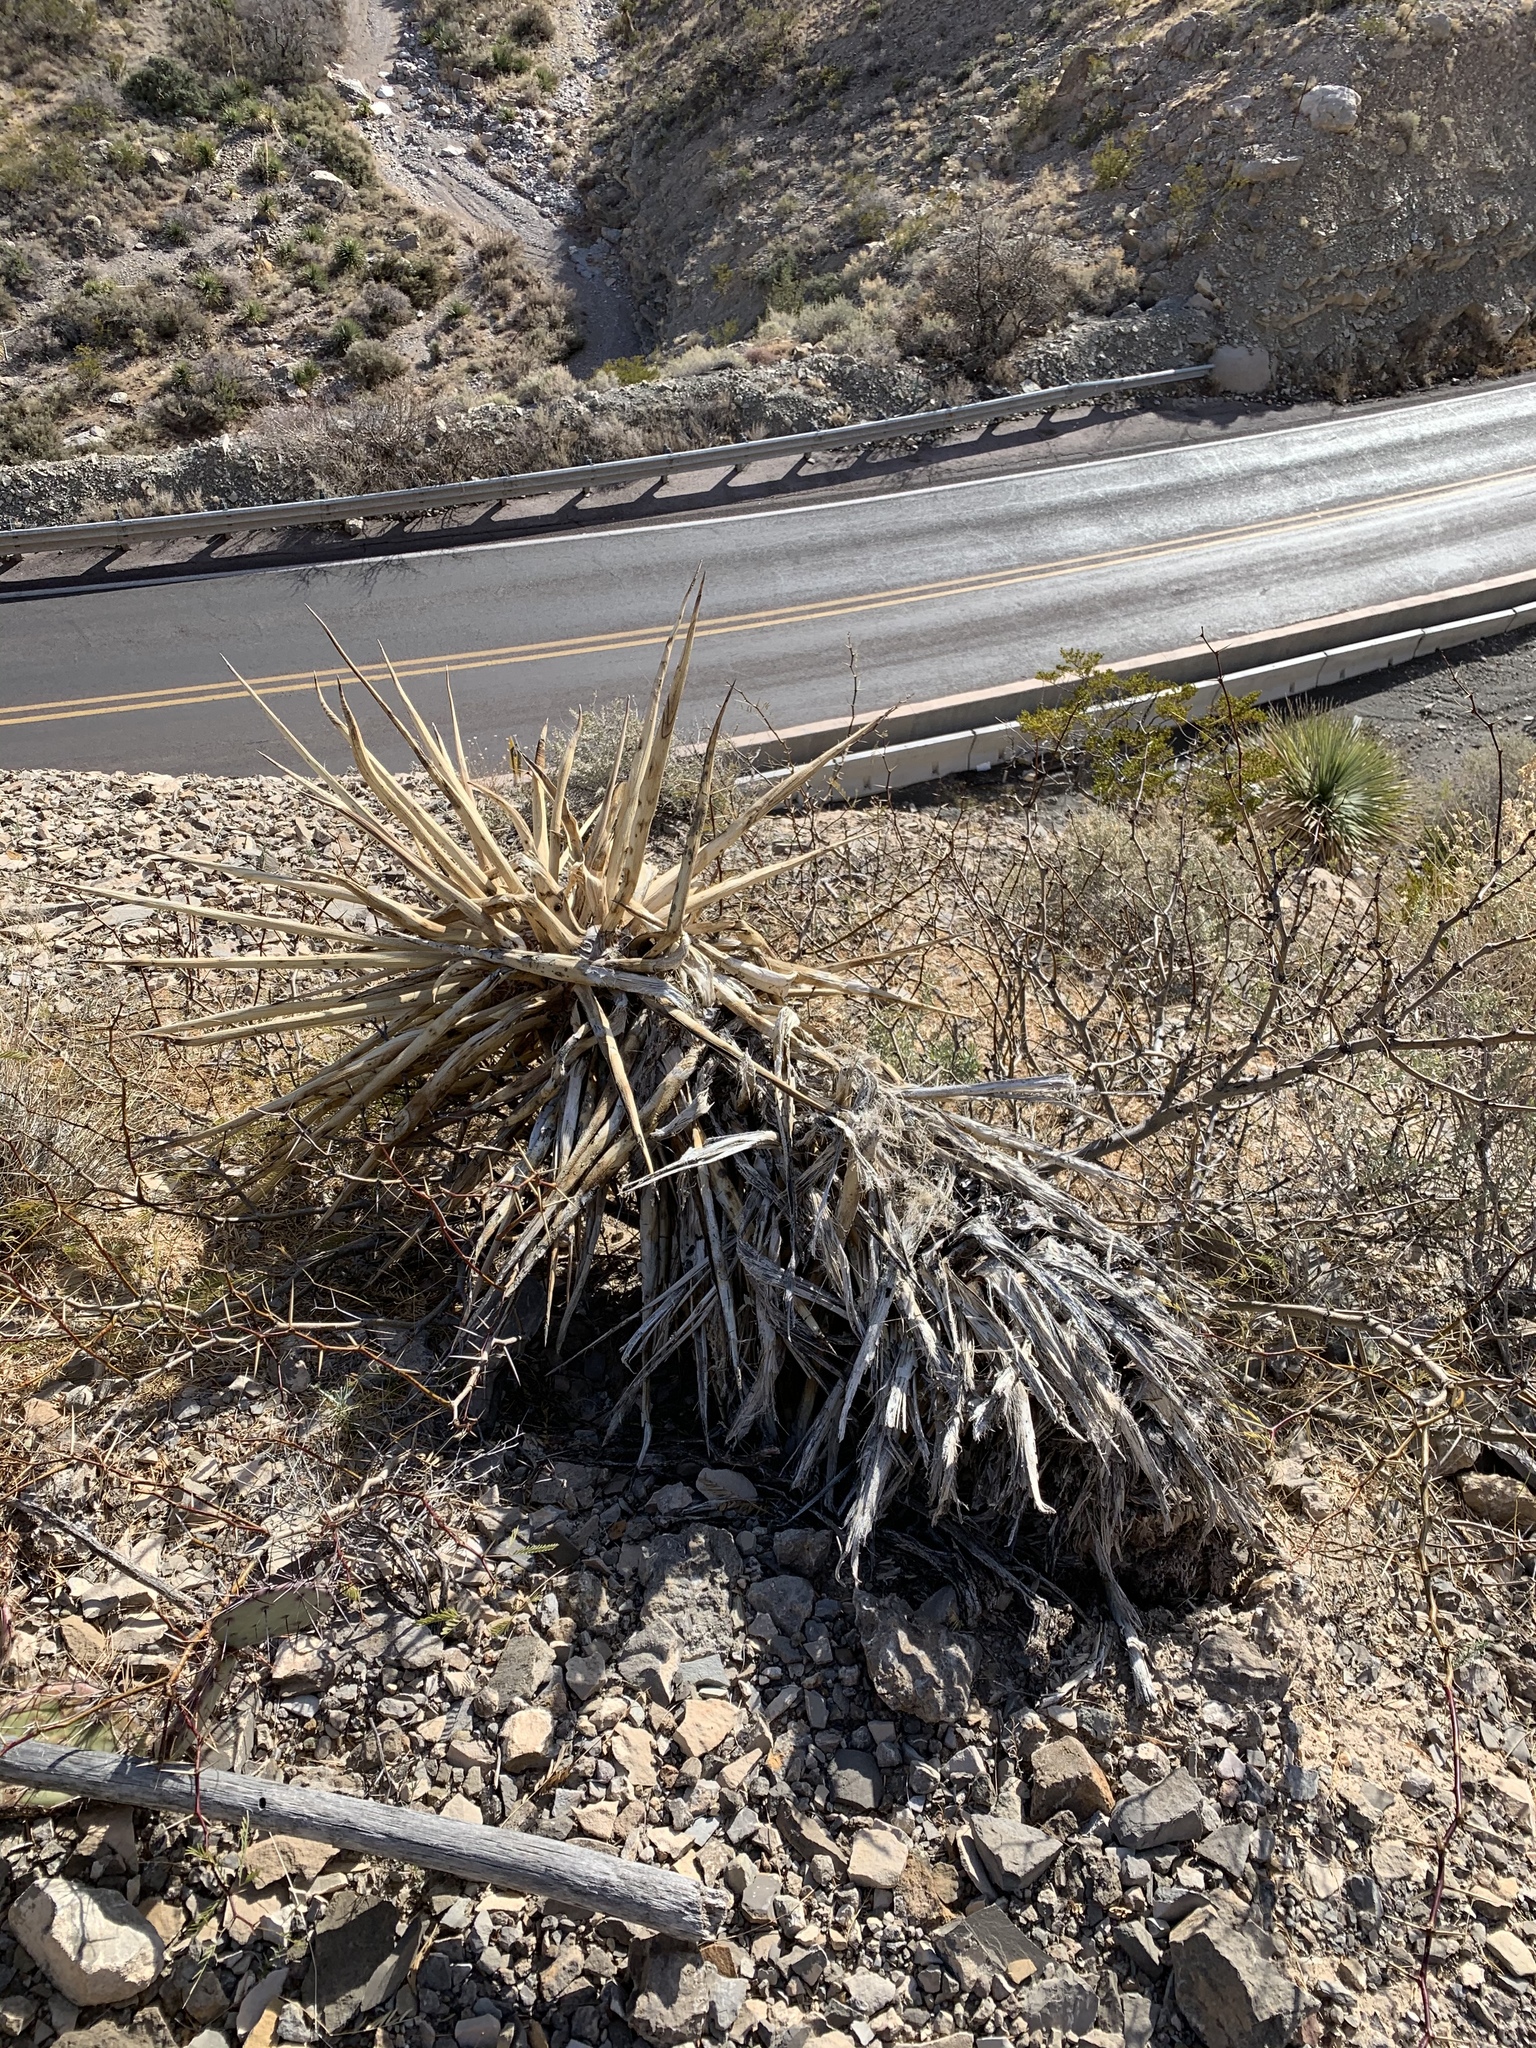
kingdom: Plantae
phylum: Tracheophyta
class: Liliopsida
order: Asparagales
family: Asparagaceae
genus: Yucca
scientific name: Yucca treculiana
